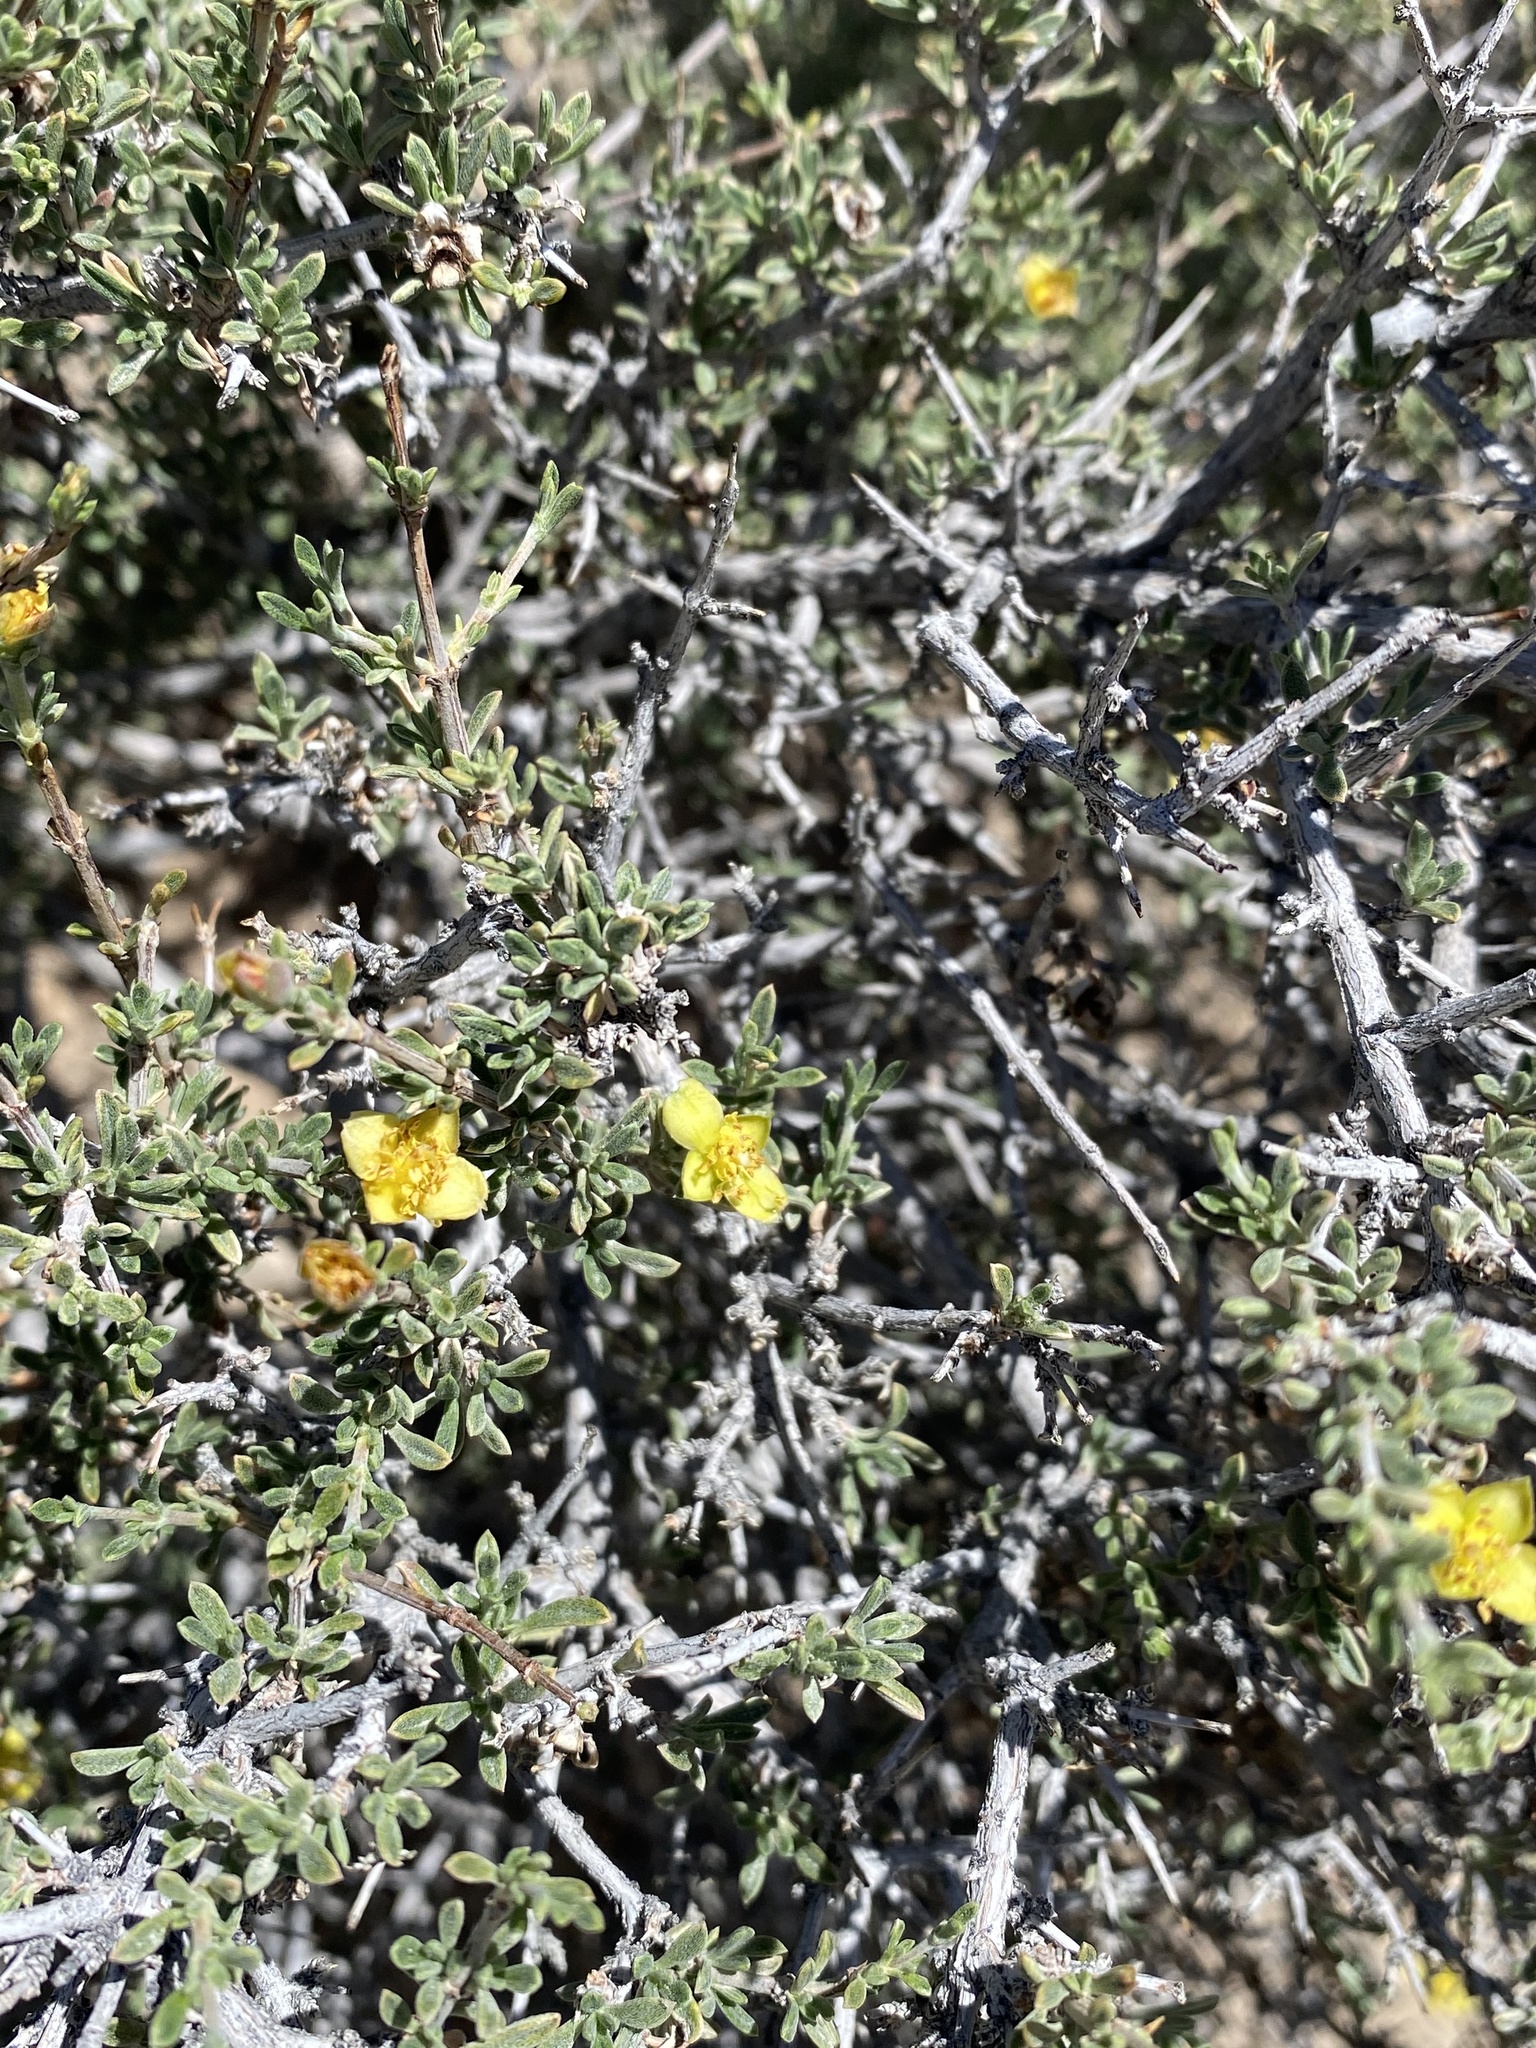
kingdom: Plantae
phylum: Tracheophyta
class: Magnoliopsida
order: Rosales
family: Rosaceae
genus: Coleogyne
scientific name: Coleogyne ramosissima
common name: Blackbrush
